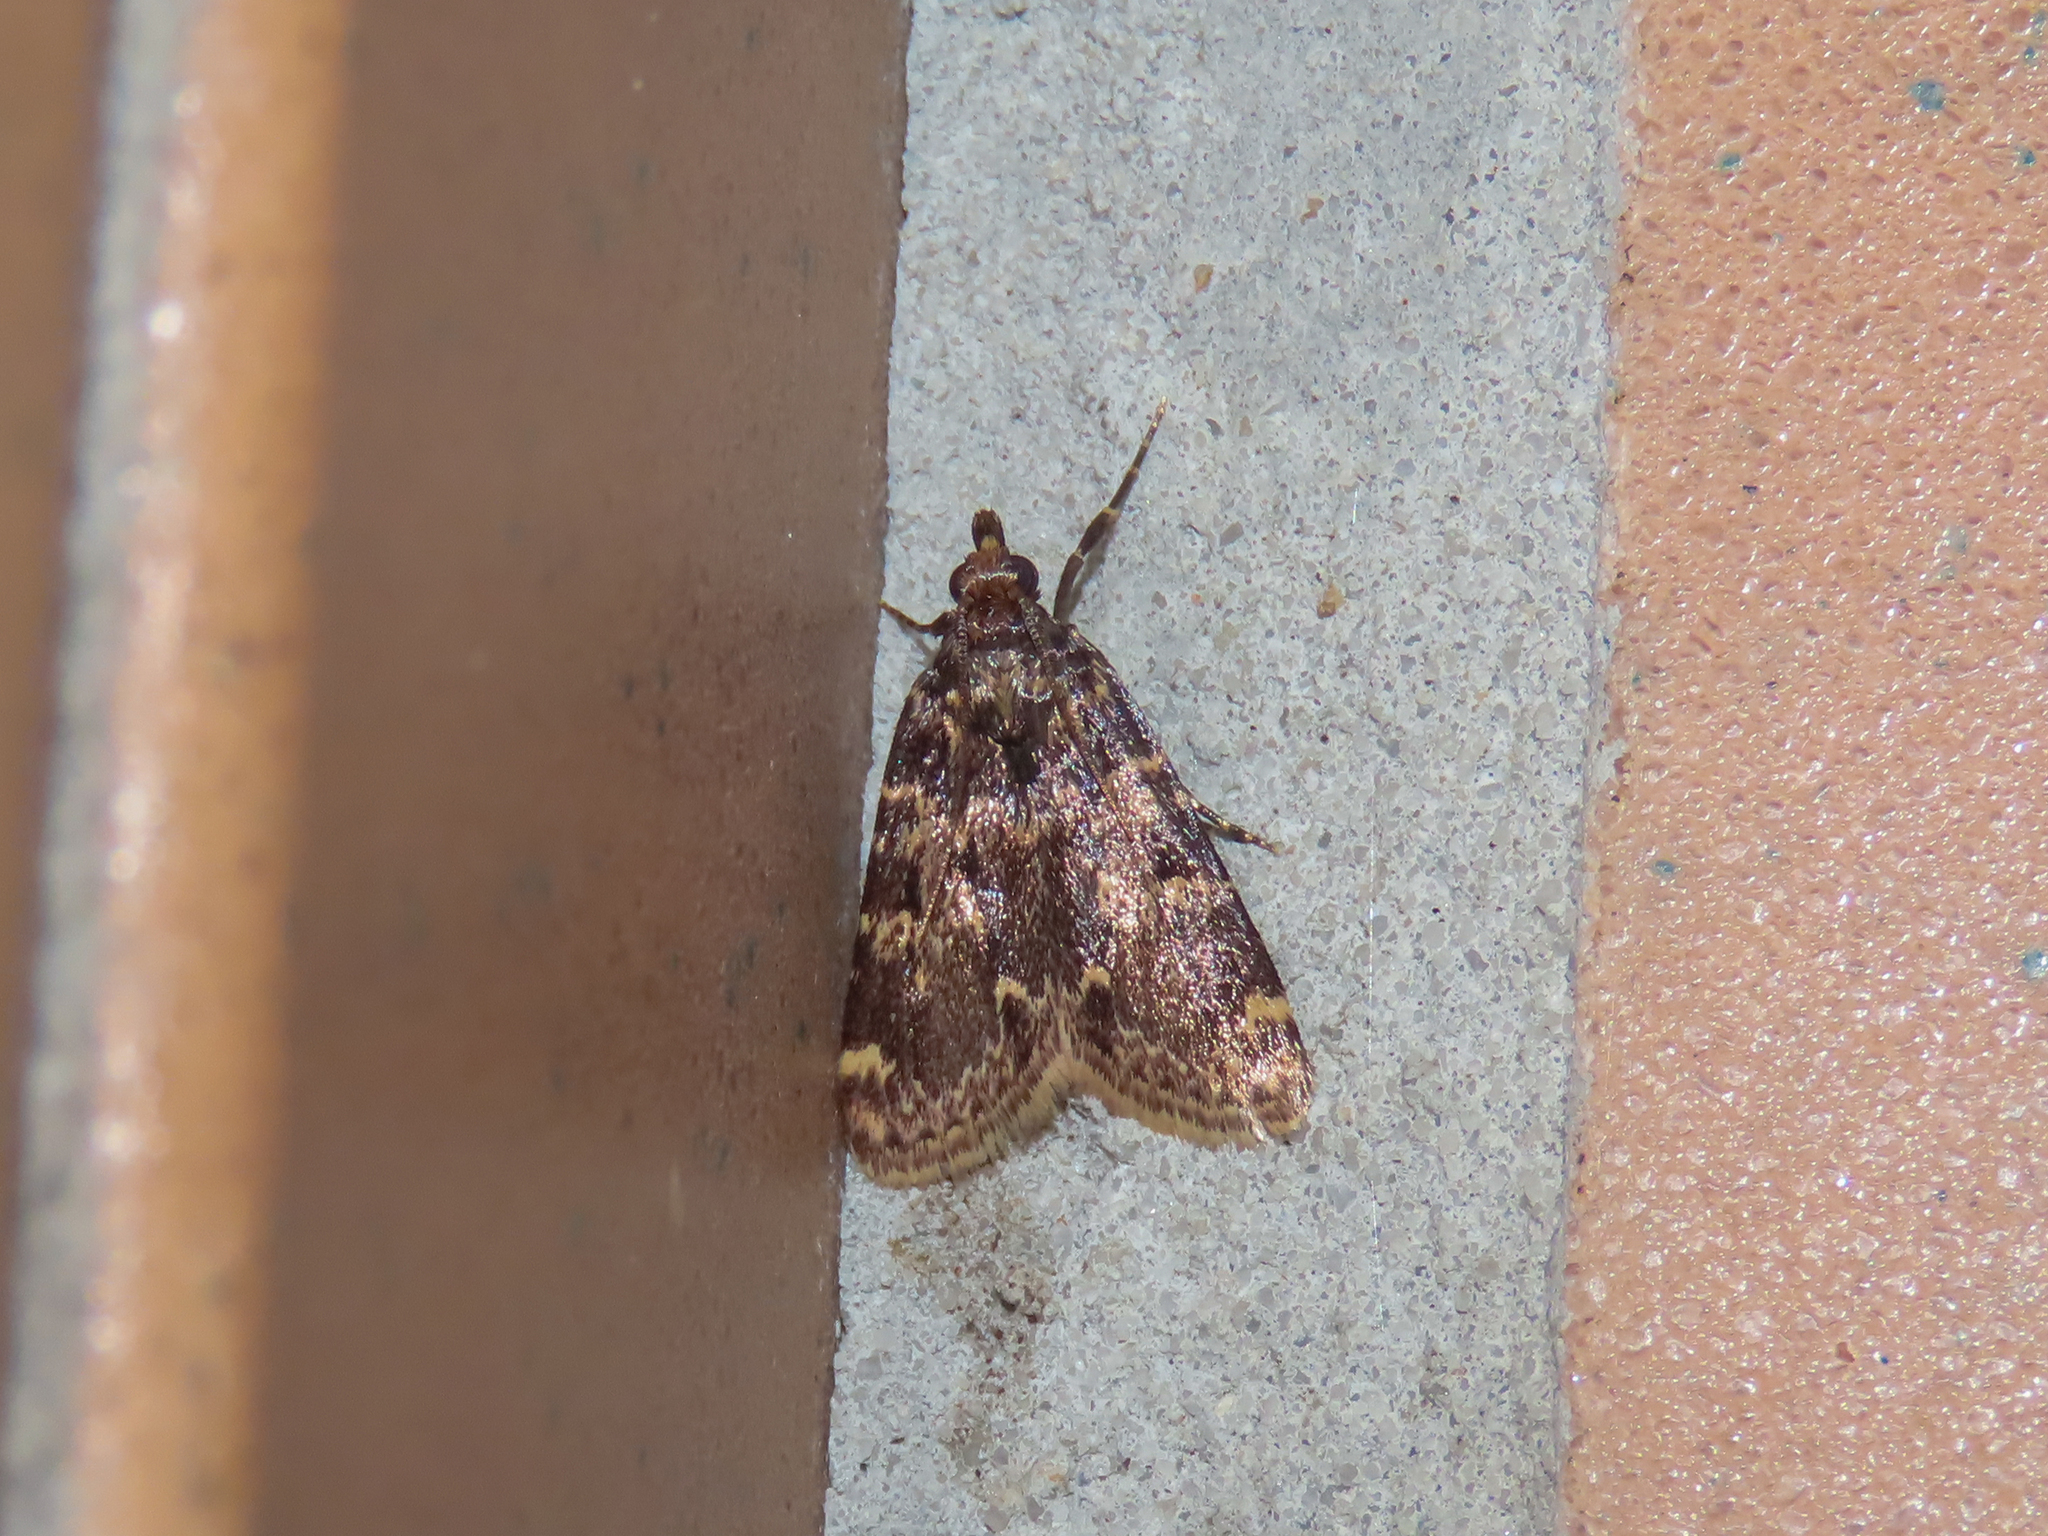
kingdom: Animalia
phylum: Arthropoda
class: Insecta
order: Lepidoptera
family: Pyralidae
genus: Aglossa
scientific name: Aglossa caprealis
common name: Small tabby
